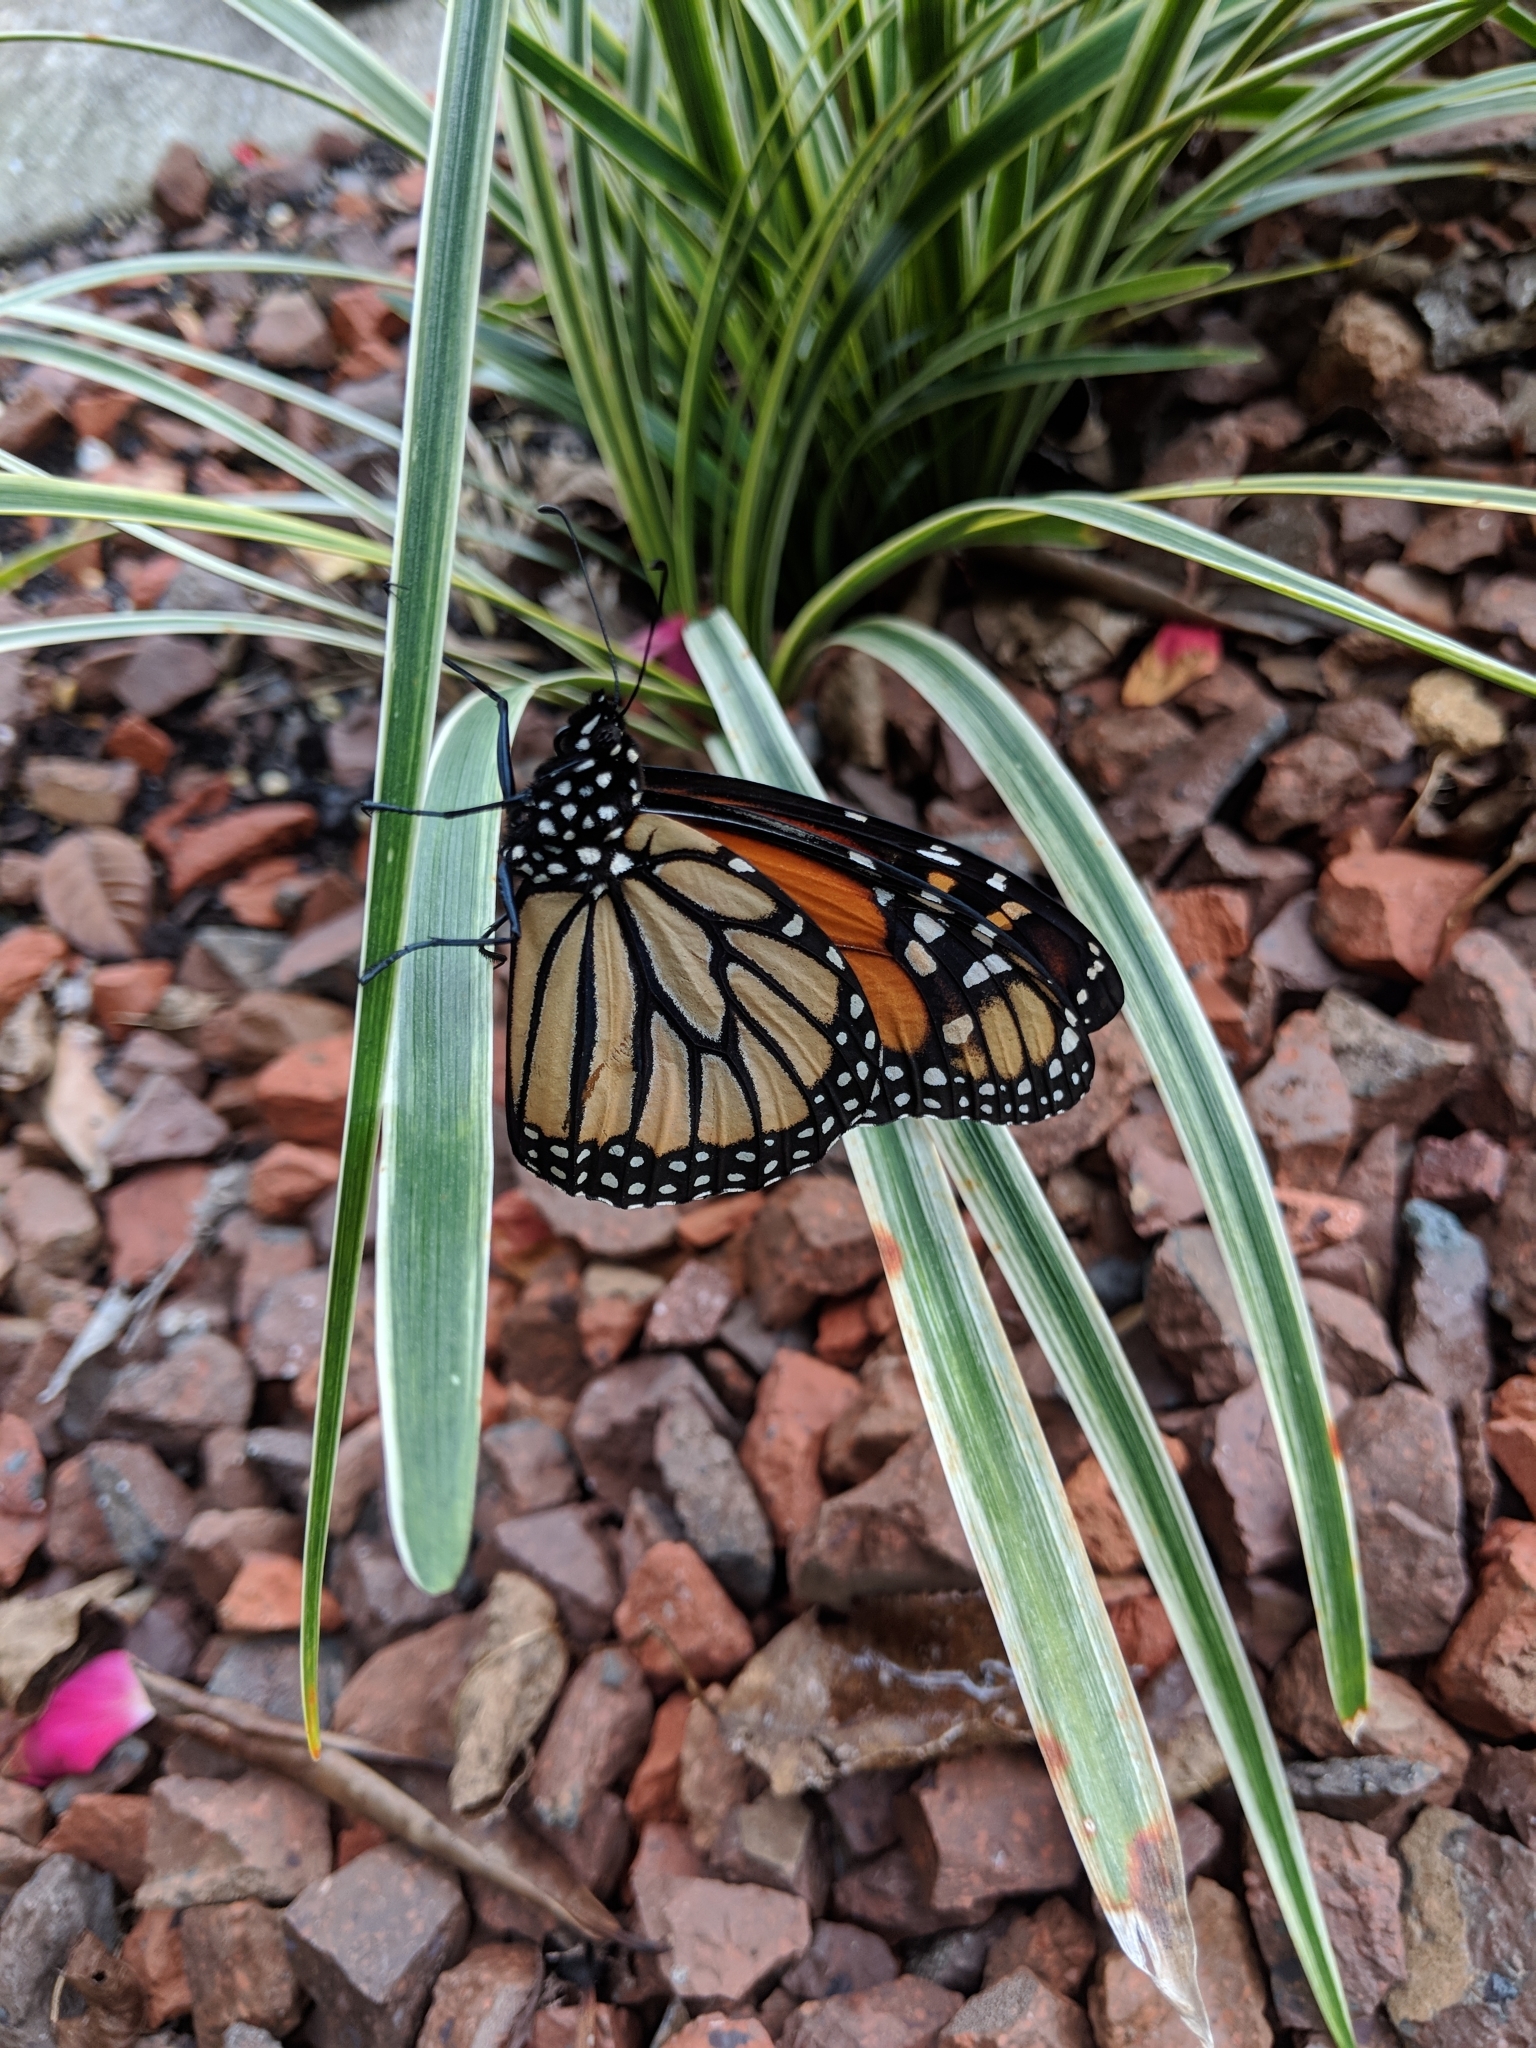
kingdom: Animalia
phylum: Arthropoda
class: Insecta
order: Lepidoptera
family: Nymphalidae
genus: Danaus
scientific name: Danaus plexippus
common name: Monarch
